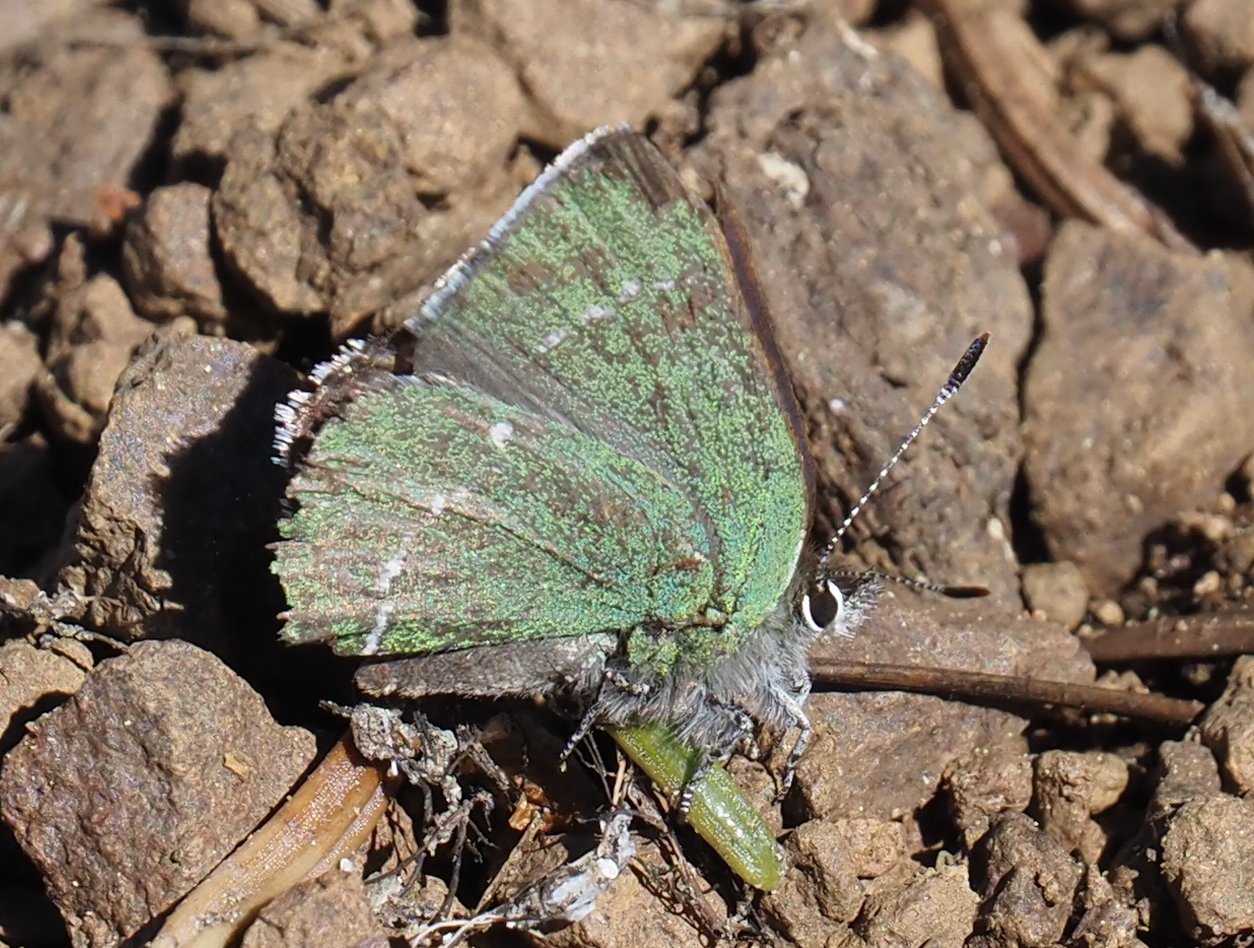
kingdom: Animalia
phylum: Arthropoda
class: Insecta
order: Lepidoptera
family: Lycaenidae
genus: Thecla
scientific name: Thecla sheridanii
